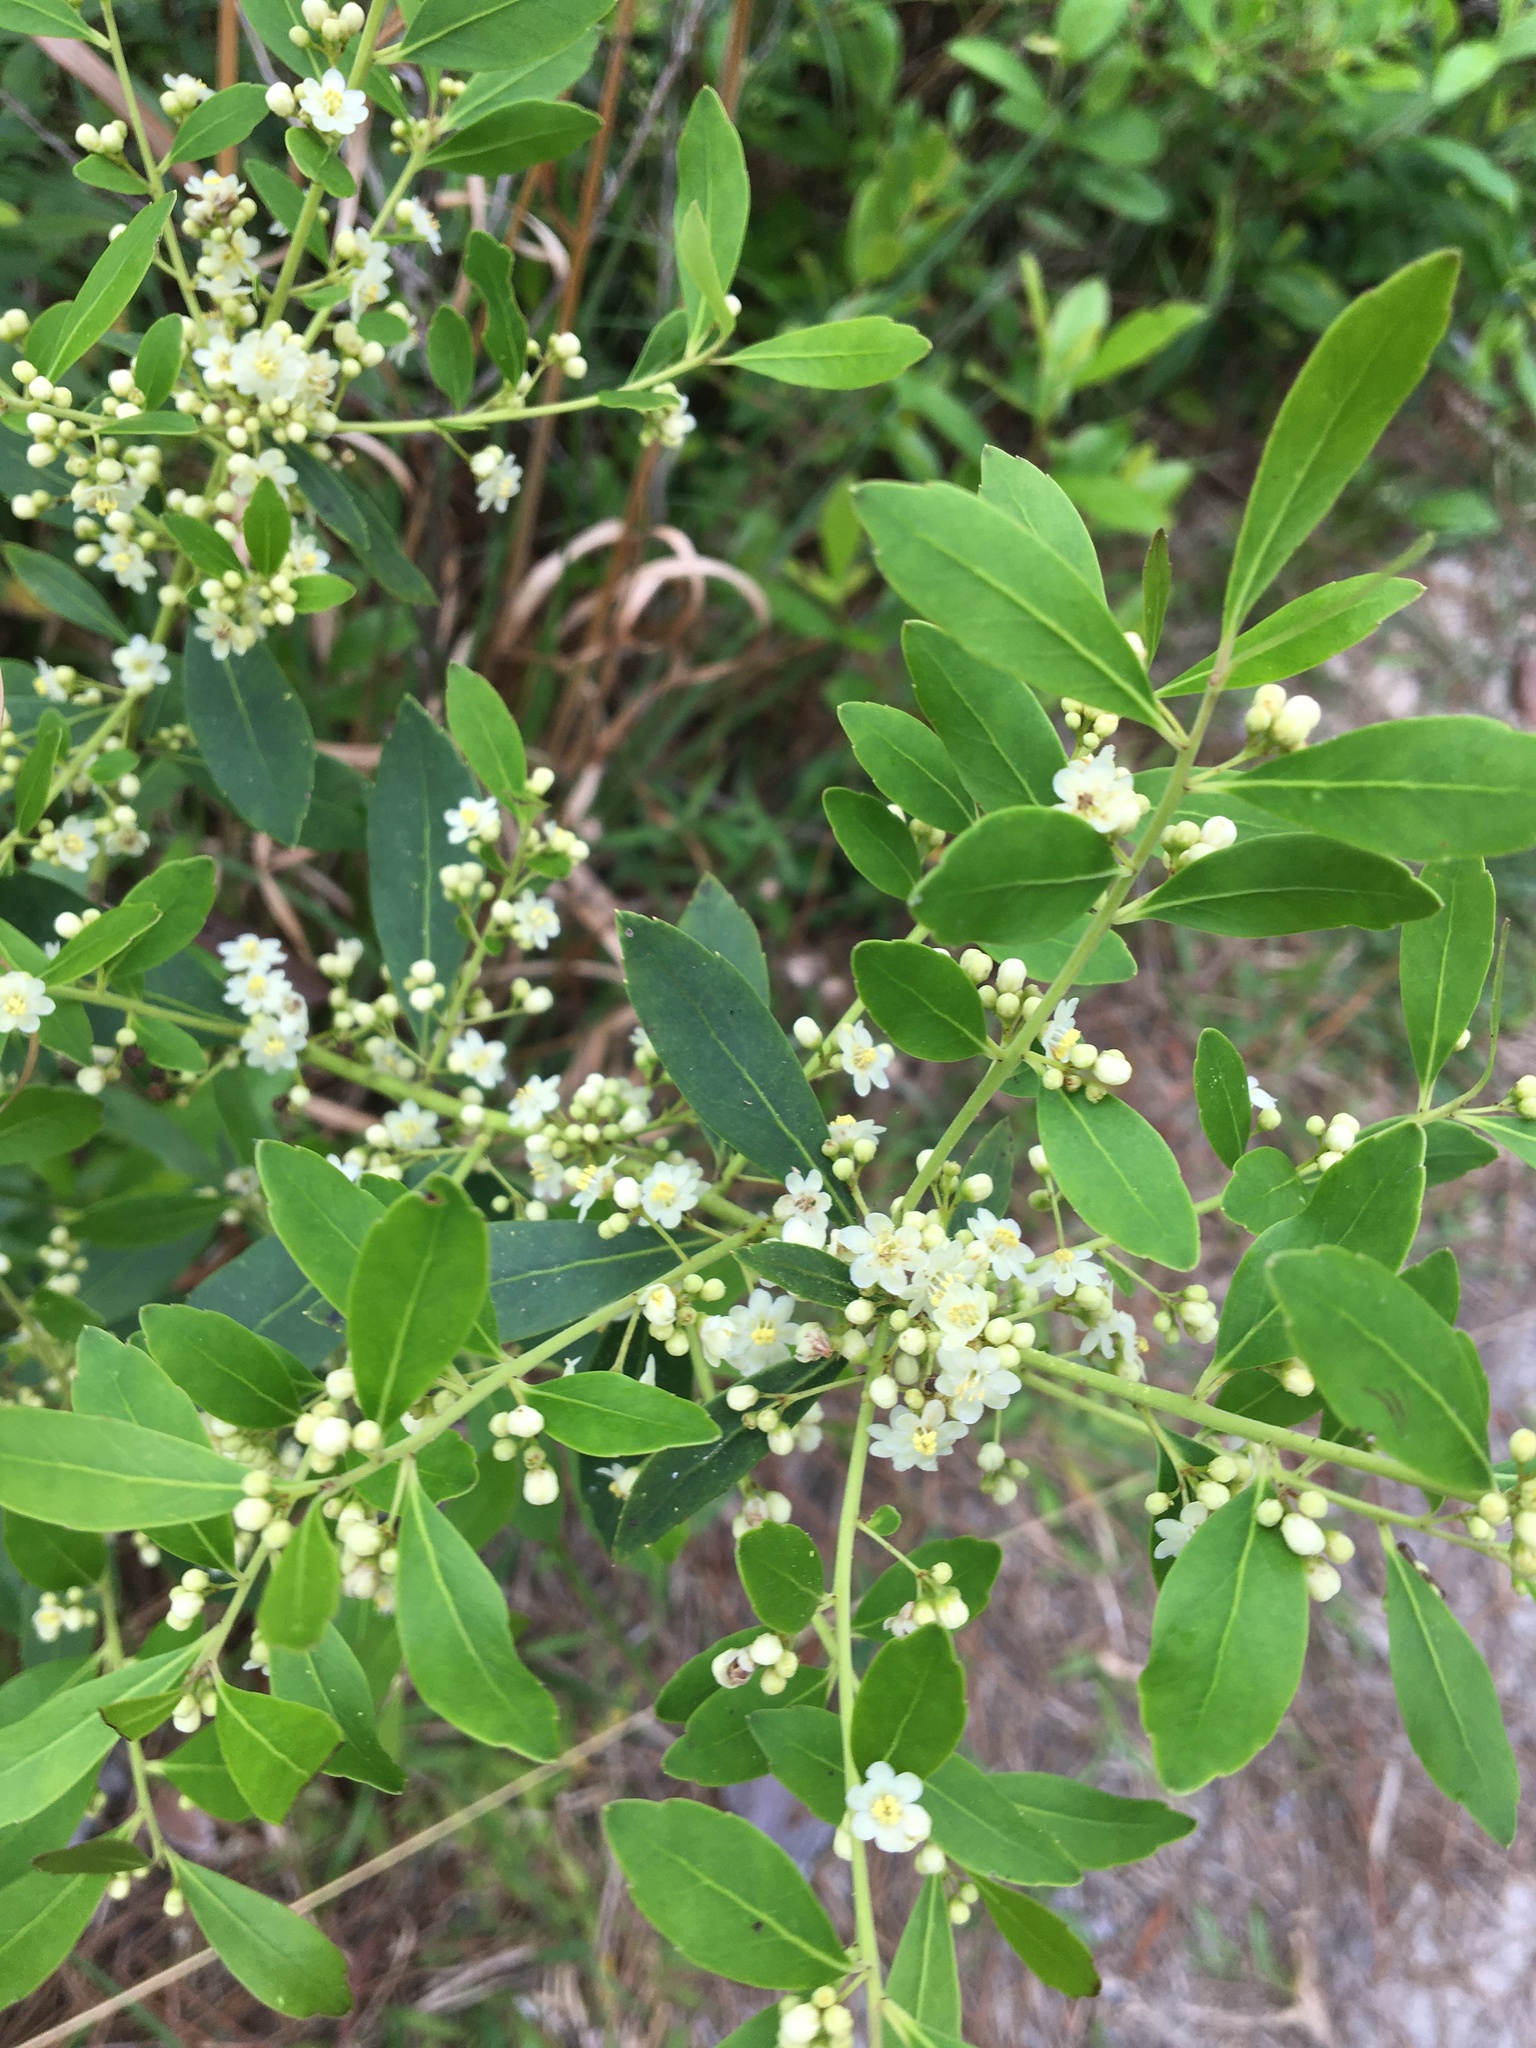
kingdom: Plantae
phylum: Tracheophyta
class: Magnoliopsida
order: Aquifoliales
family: Aquifoliaceae
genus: Ilex
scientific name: Ilex glabra
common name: Bitter gallberry
